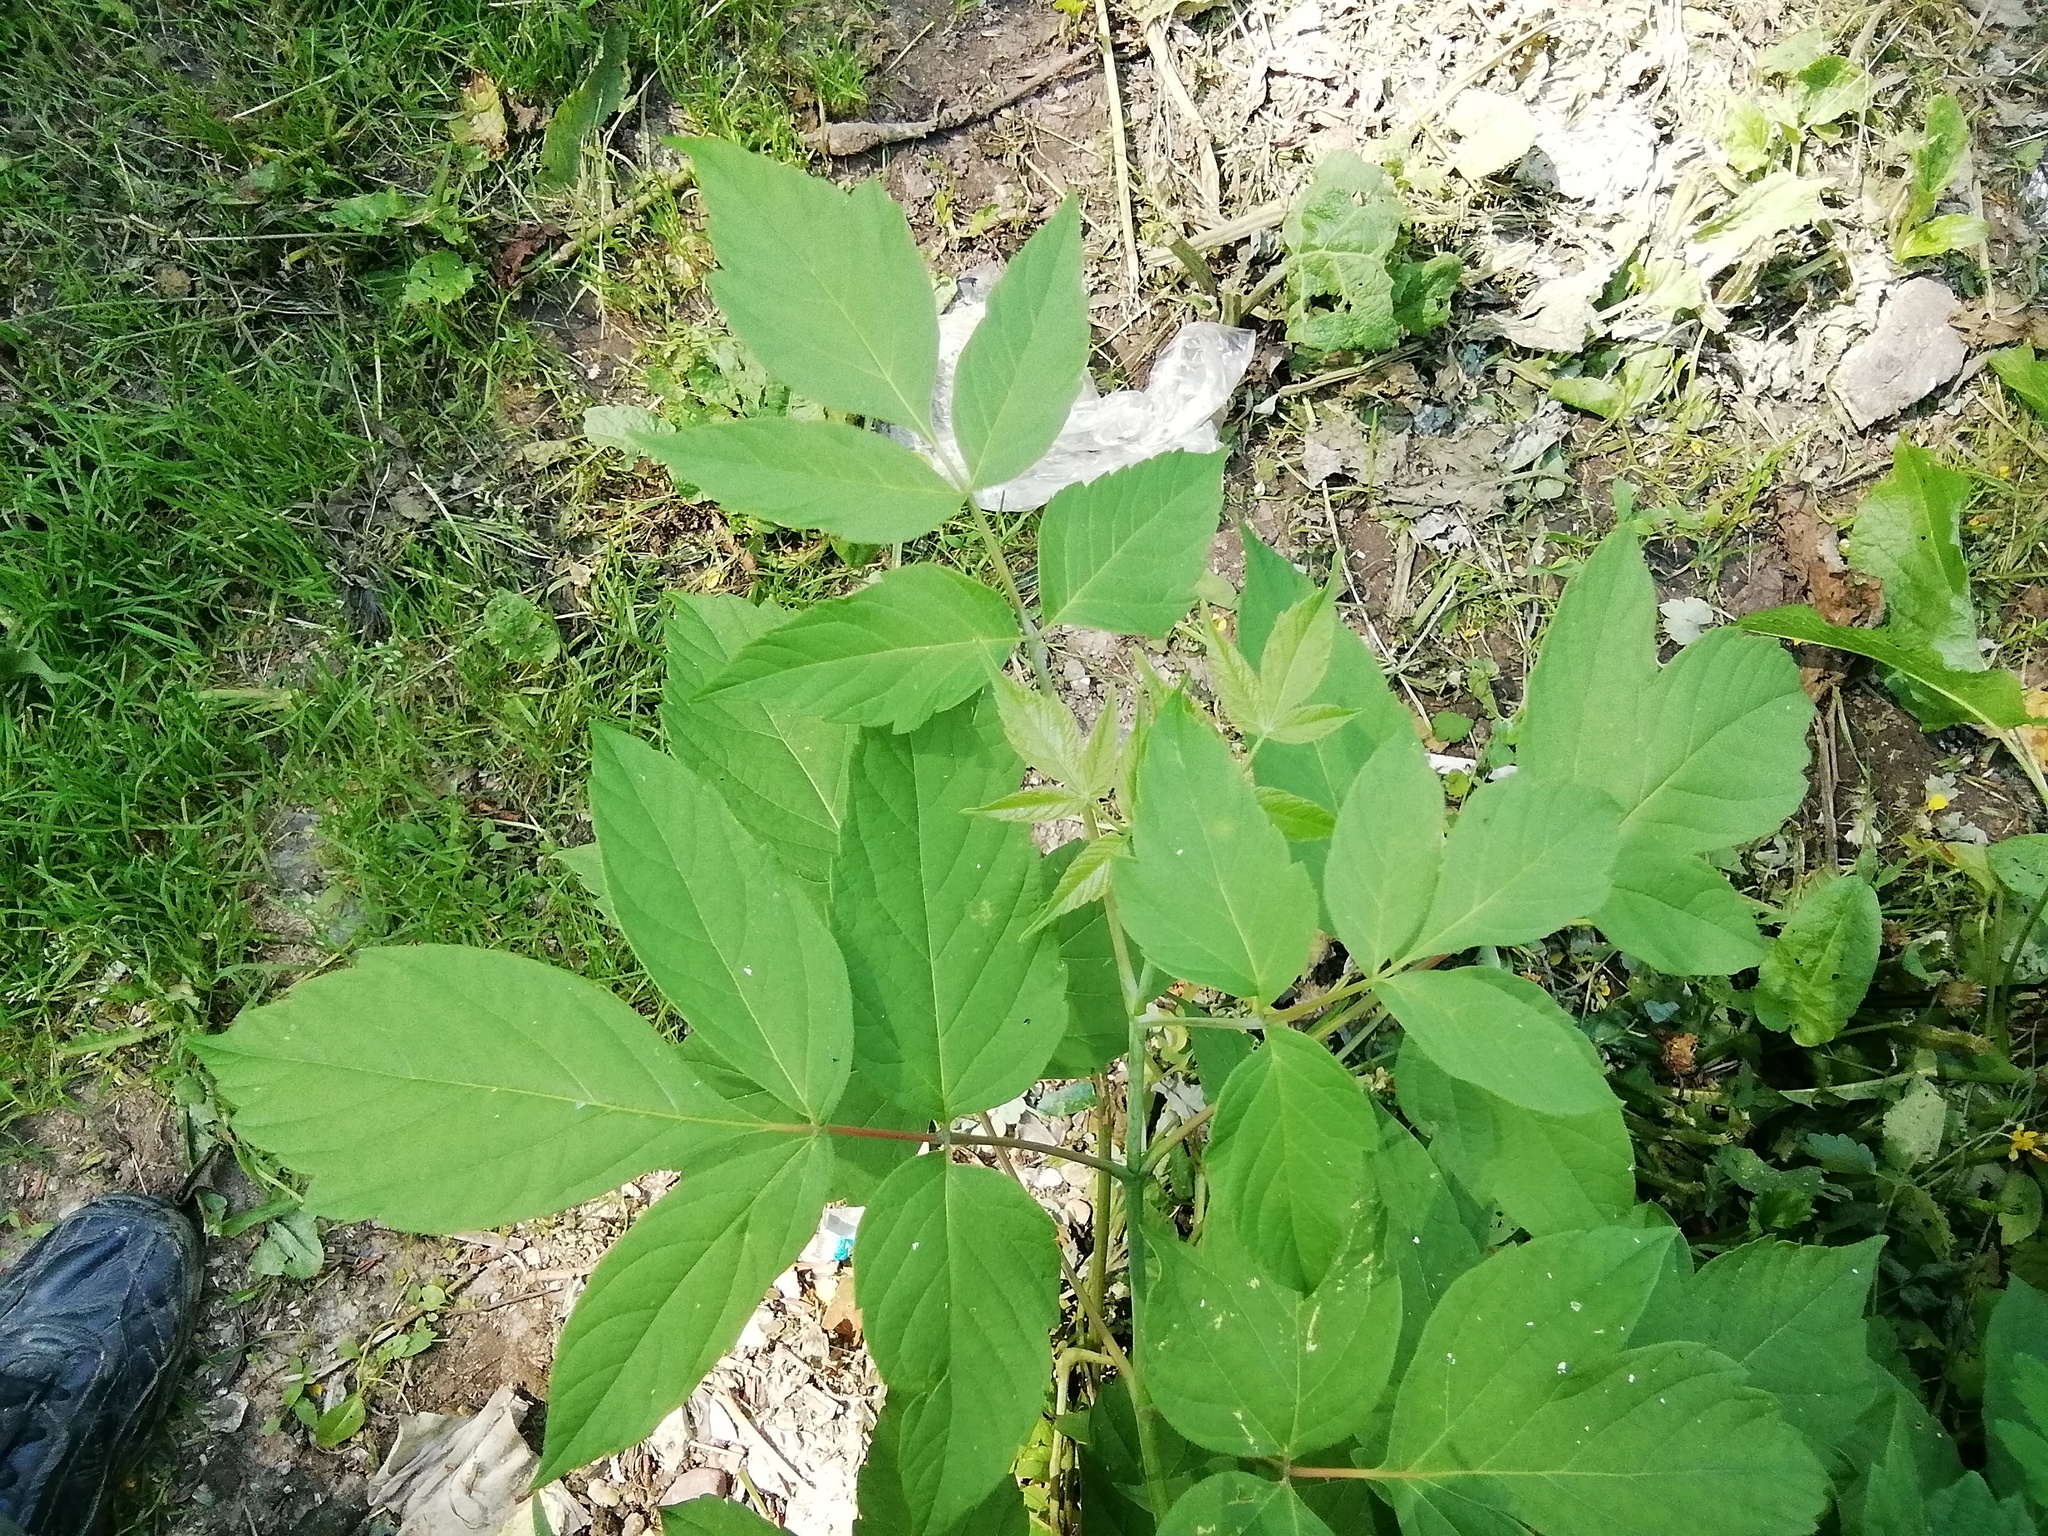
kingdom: Plantae
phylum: Tracheophyta
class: Magnoliopsida
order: Sapindales
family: Sapindaceae
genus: Acer
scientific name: Acer negundo
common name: Ashleaf maple
